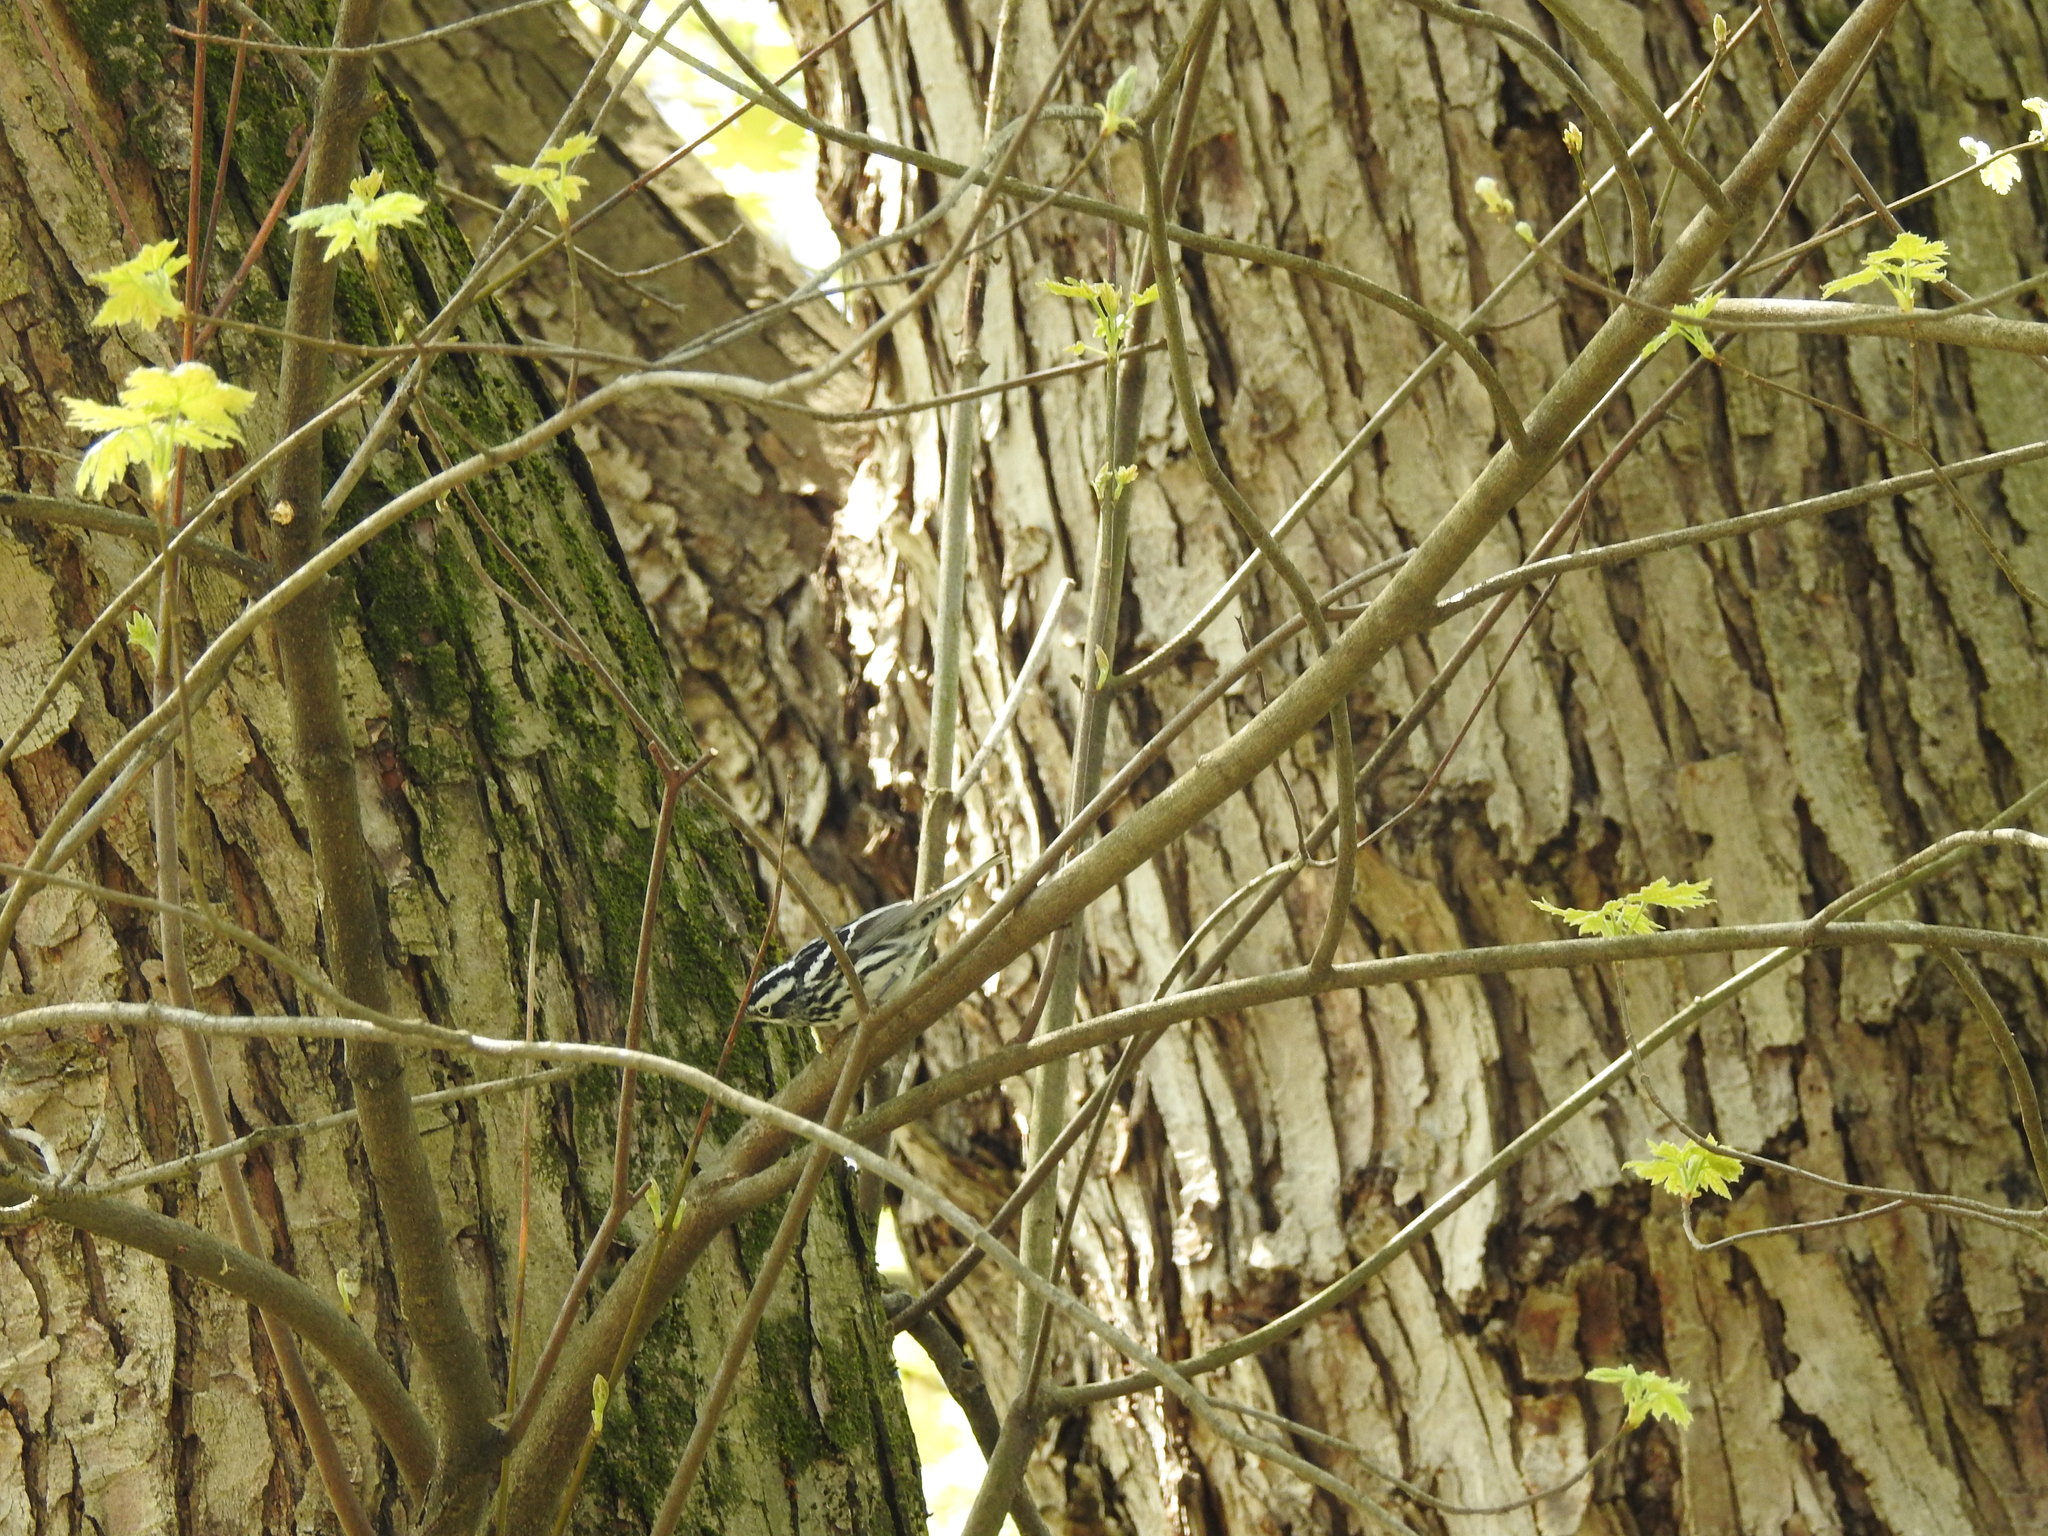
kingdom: Animalia
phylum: Chordata
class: Aves
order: Passeriformes
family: Parulidae
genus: Mniotilta
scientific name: Mniotilta varia
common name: Black-and-white warbler
